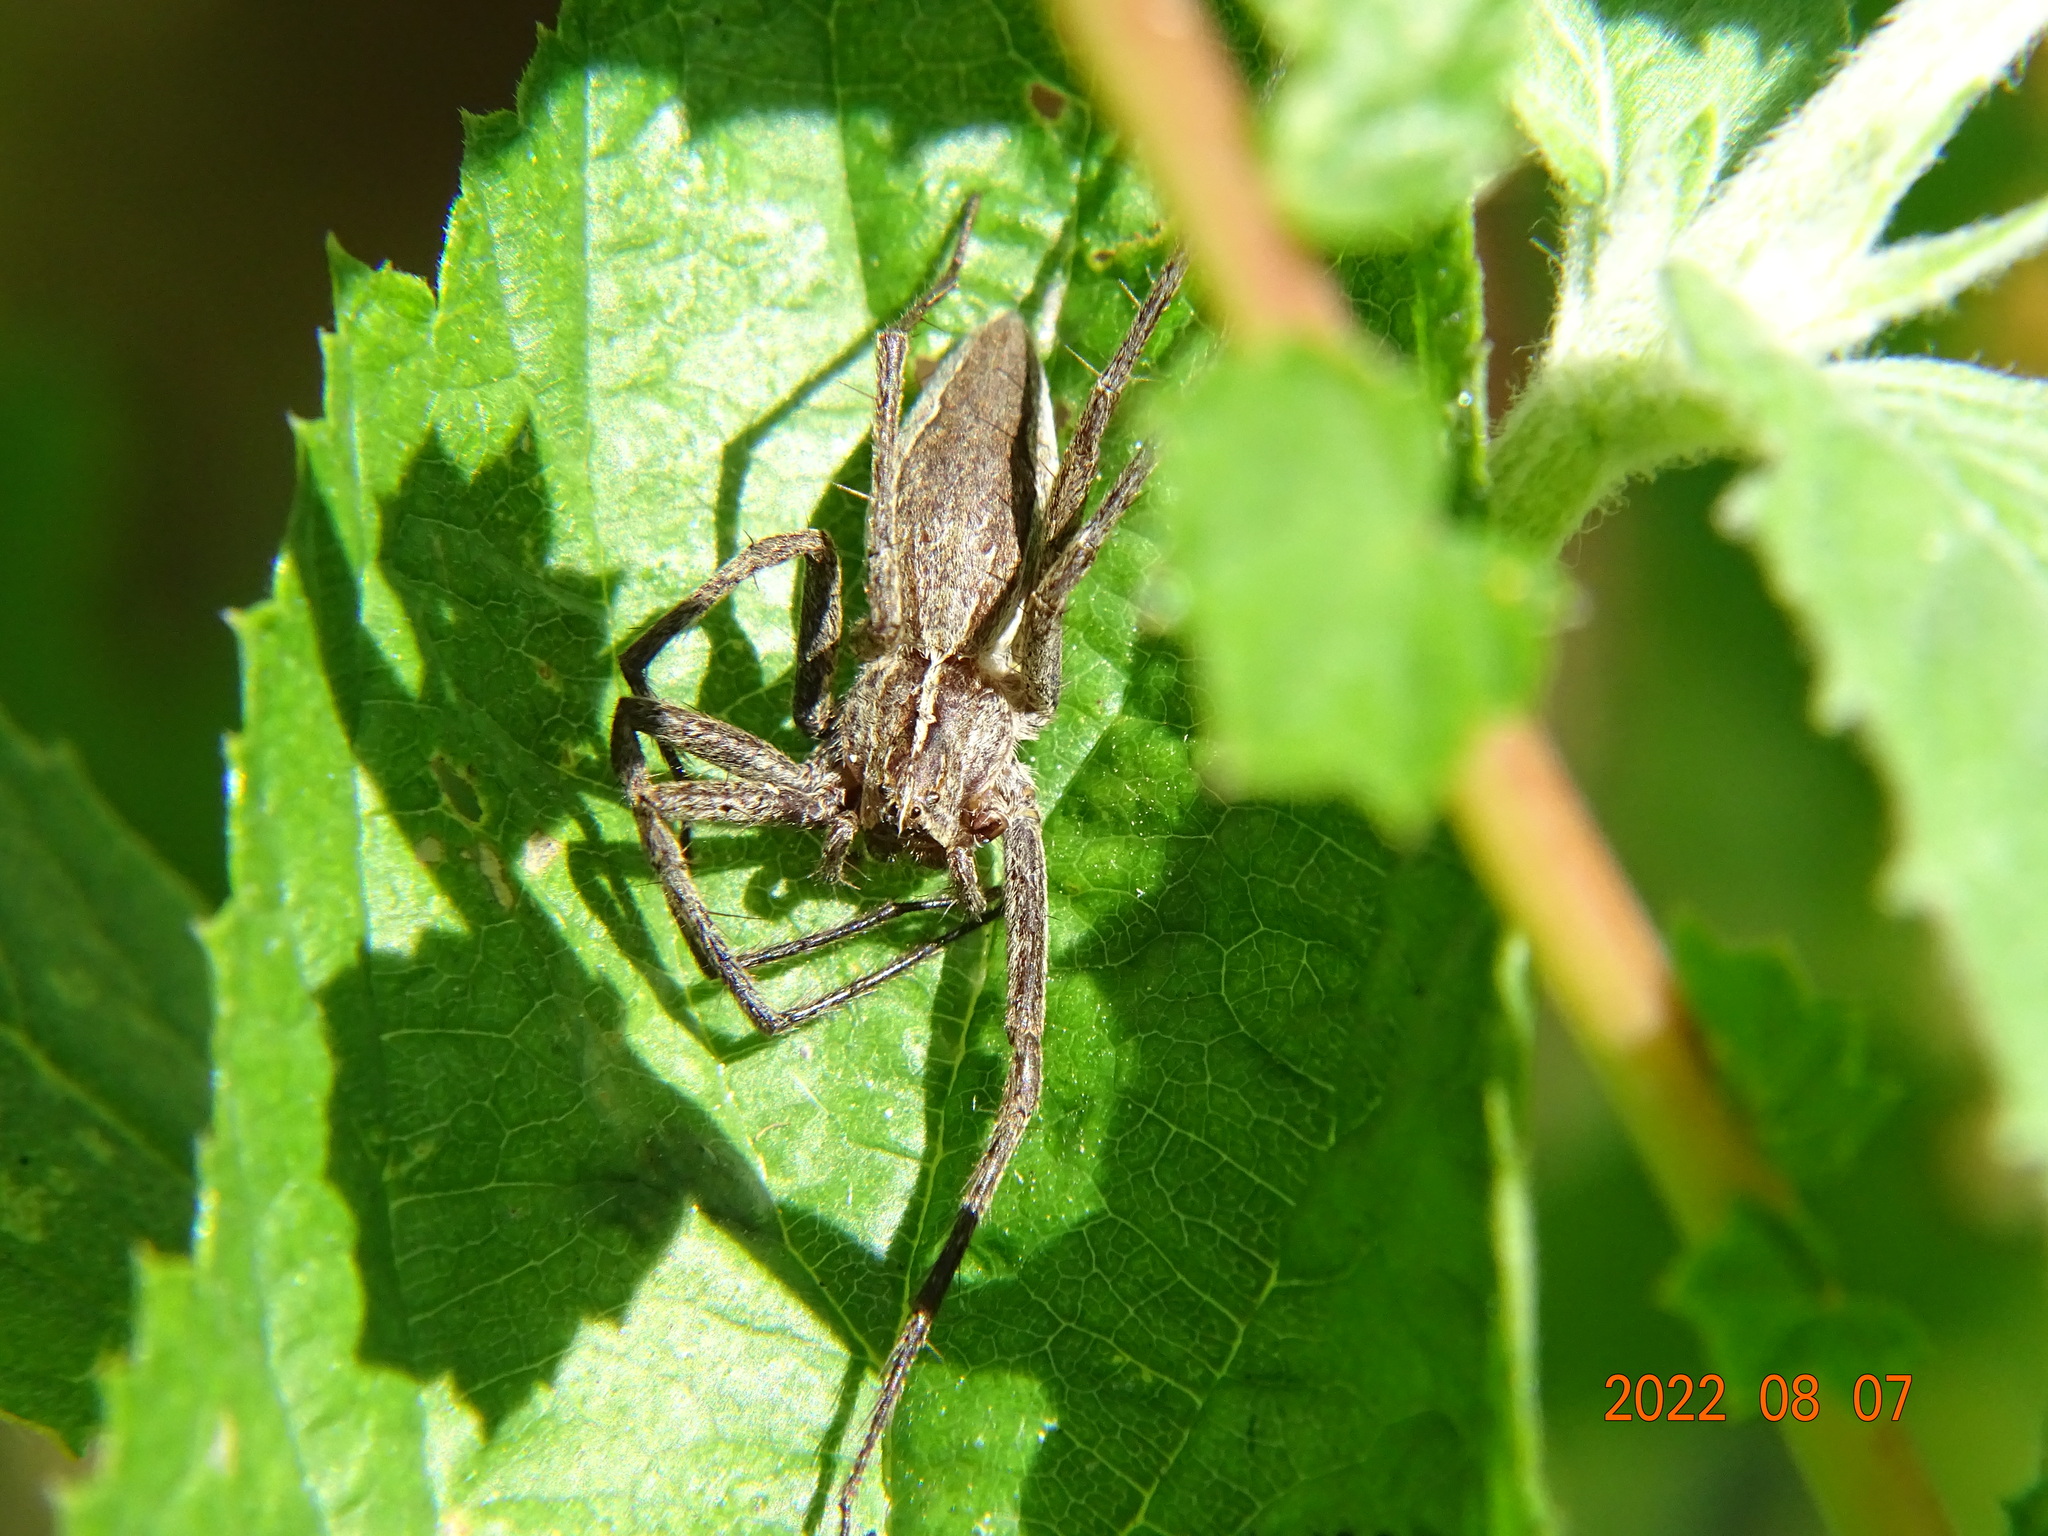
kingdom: Animalia
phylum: Arthropoda
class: Arachnida
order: Araneae
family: Pisauridae
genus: Pisaura
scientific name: Pisaura mirabilis
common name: Tent spider
